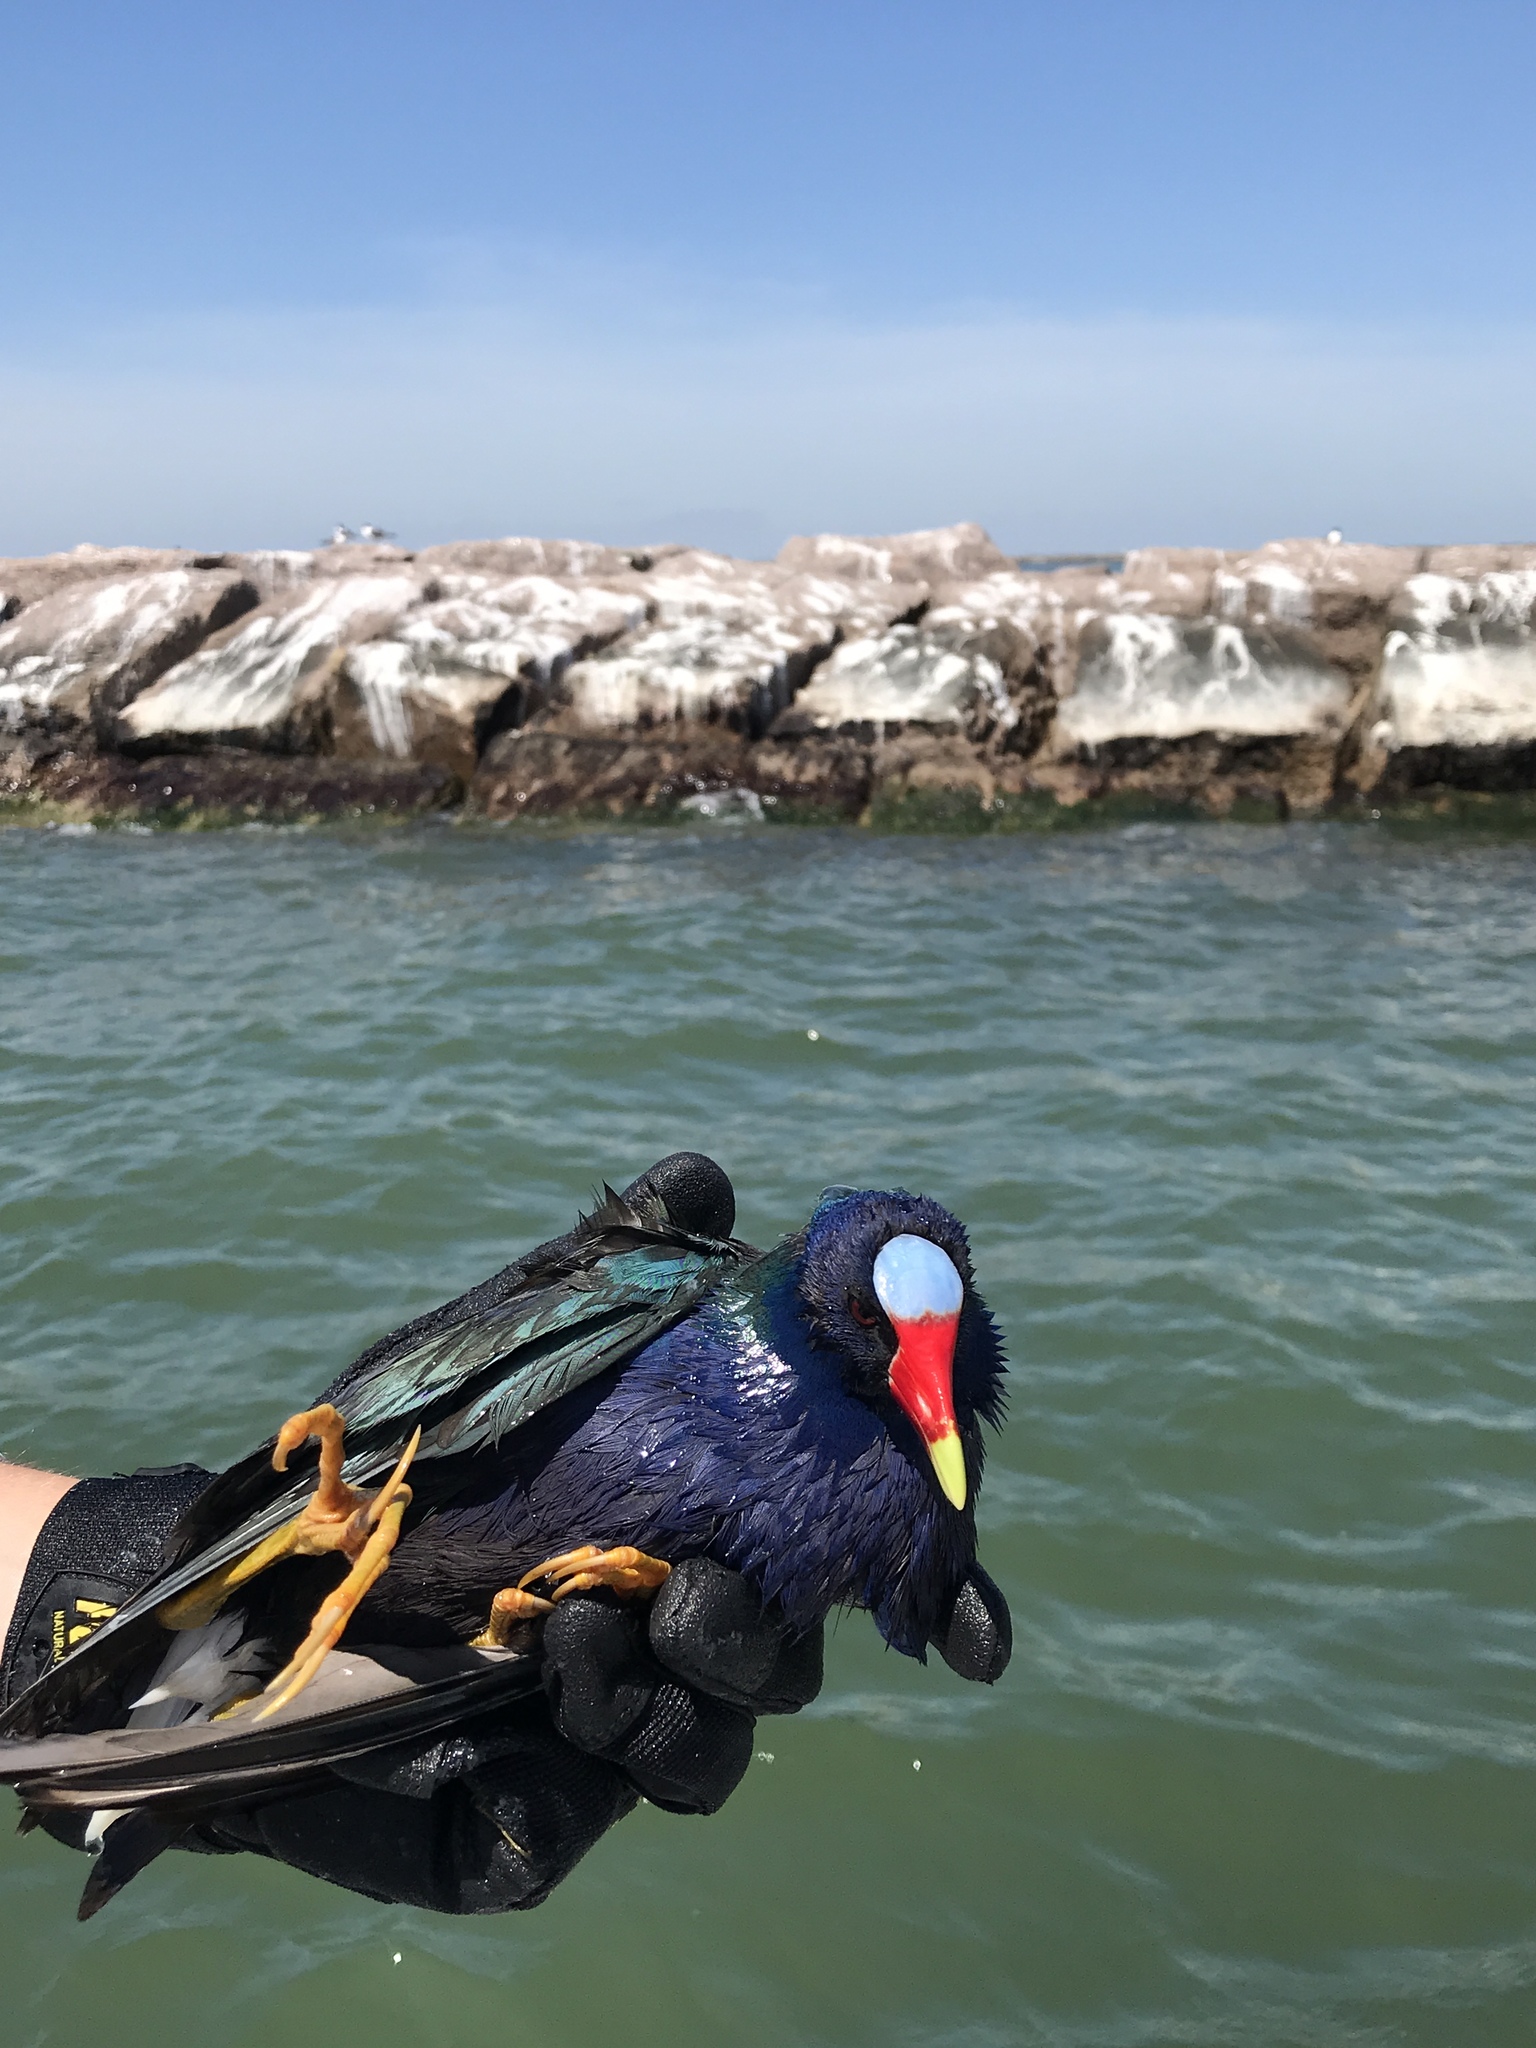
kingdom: Animalia
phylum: Chordata
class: Aves
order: Gruiformes
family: Rallidae
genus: Porphyrio
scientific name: Porphyrio martinica
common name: Purple gallinule
